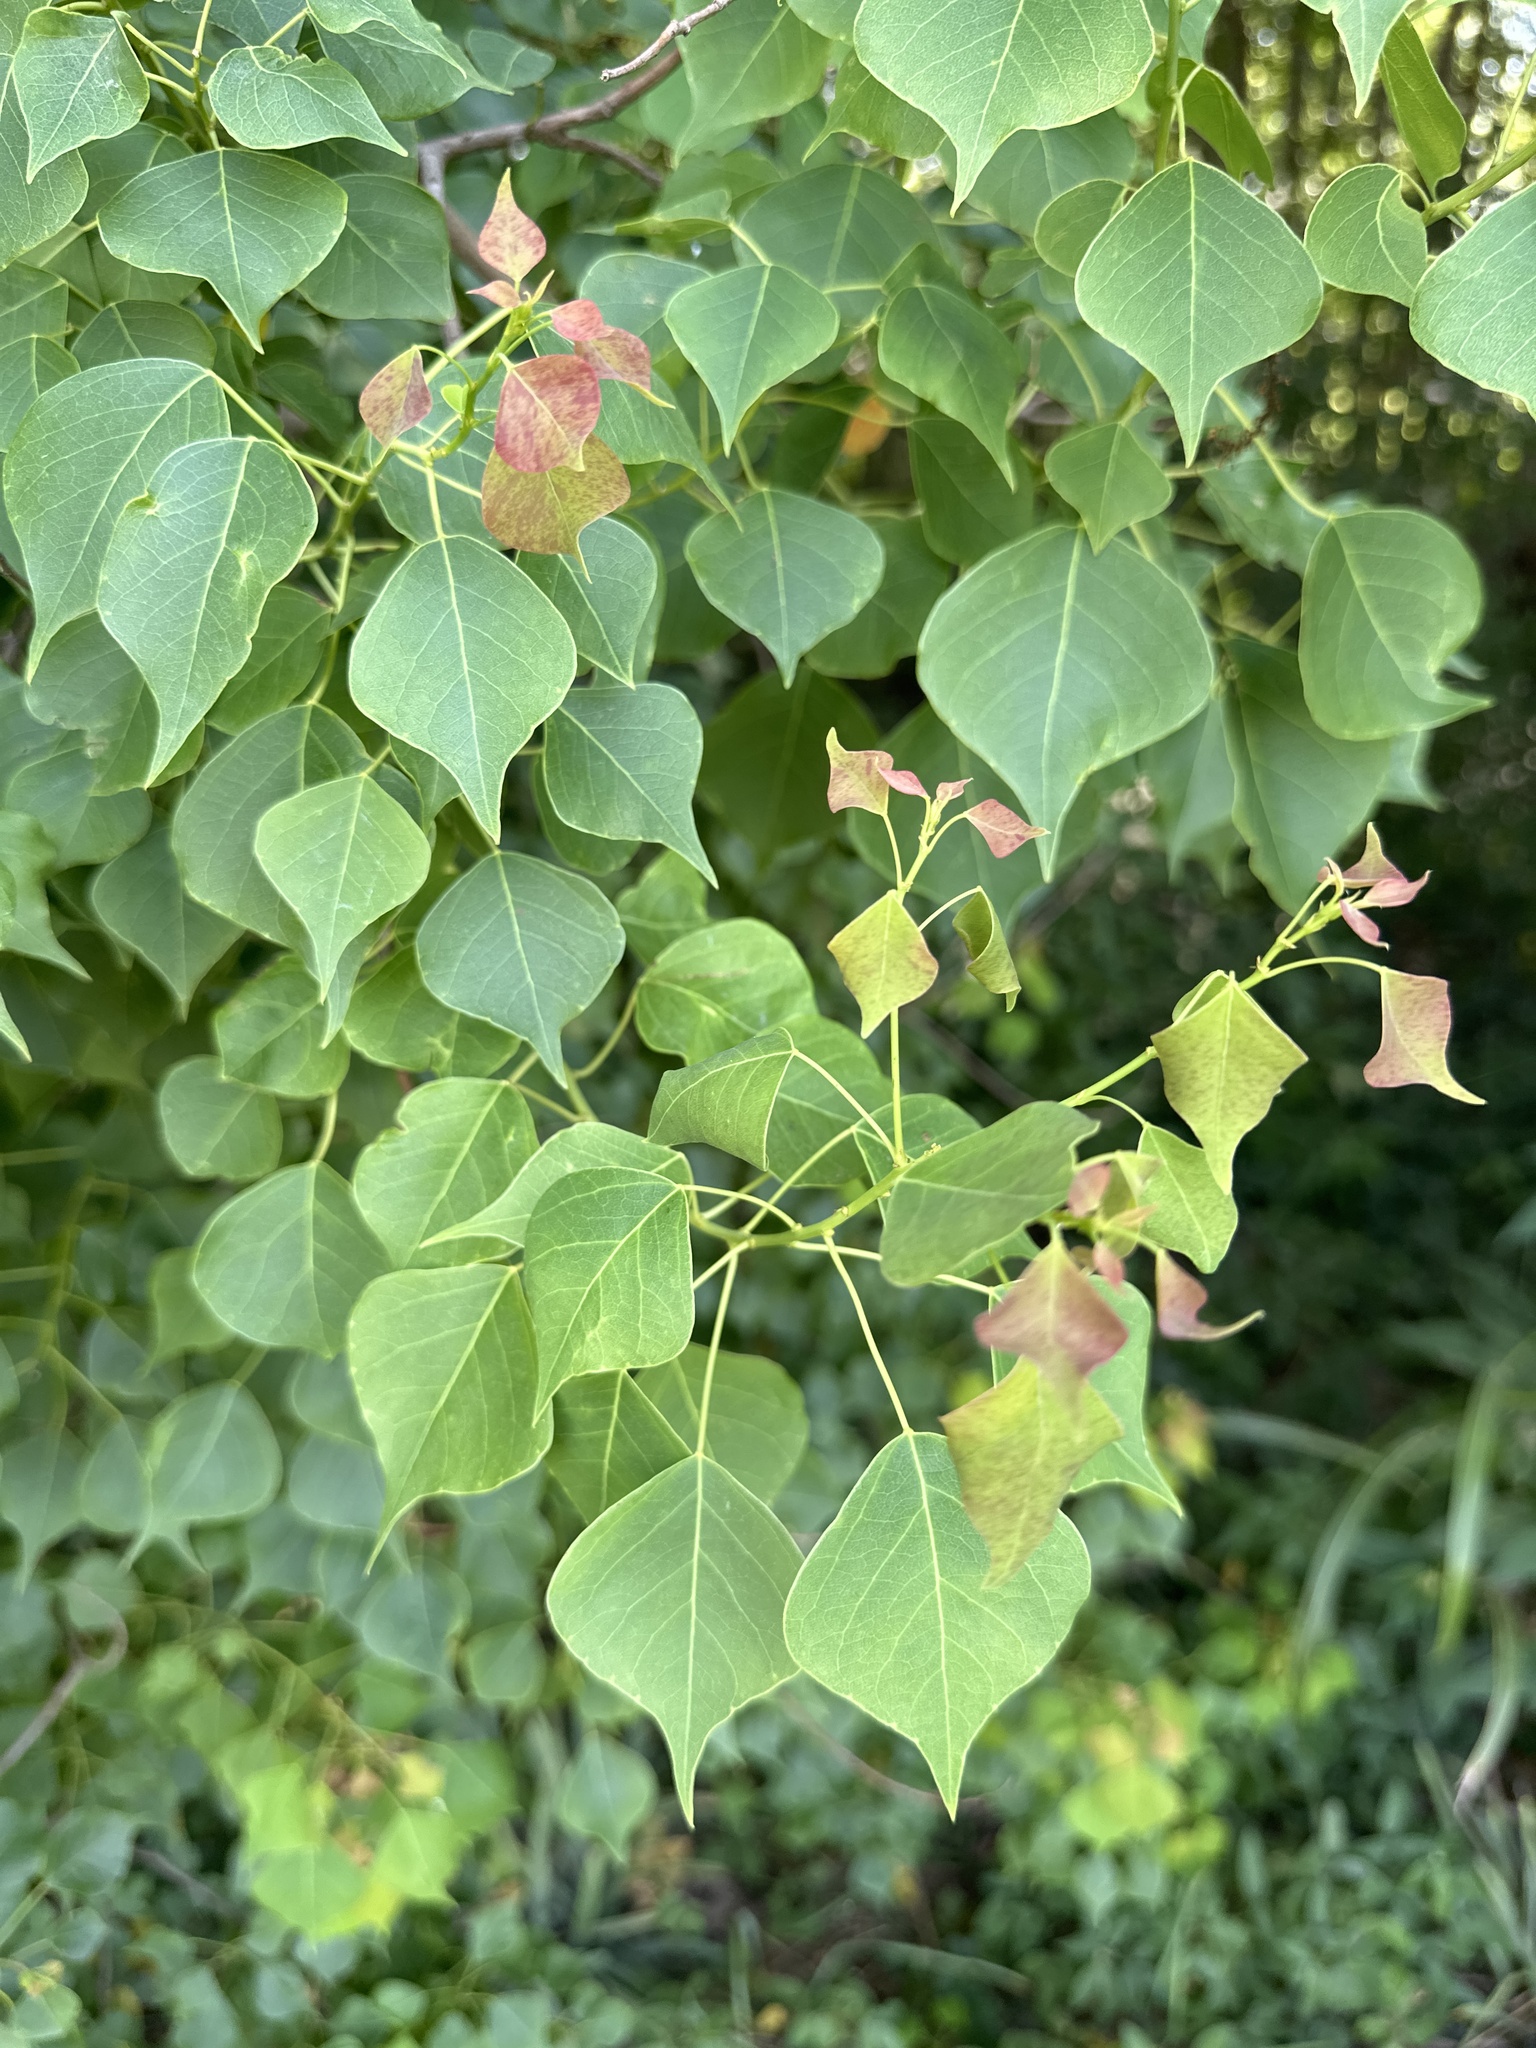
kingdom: Plantae
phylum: Tracheophyta
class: Magnoliopsida
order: Malpighiales
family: Euphorbiaceae
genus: Triadica
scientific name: Triadica sebifera
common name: Chinese tallow
